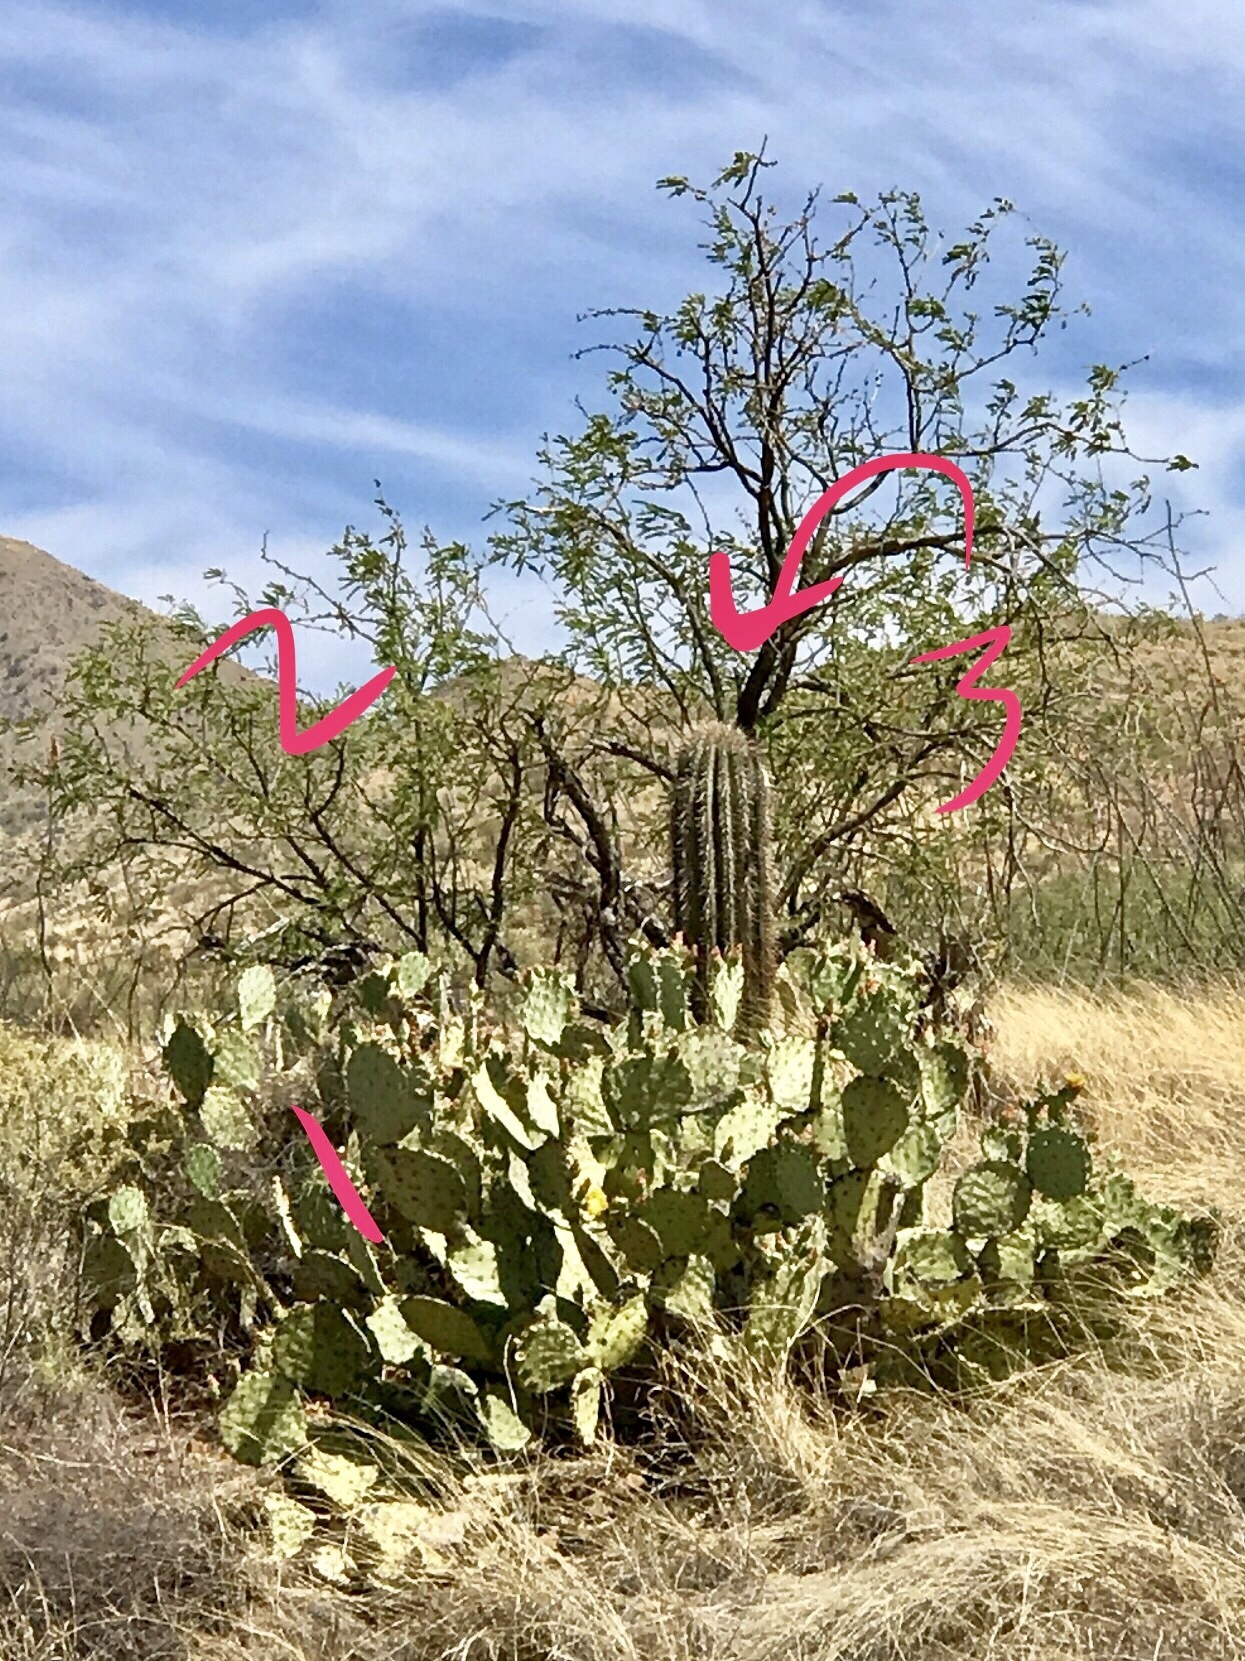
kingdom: Plantae
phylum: Tracheophyta
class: Magnoliopsida
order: Caryophyllales
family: Cactaceae
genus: Opuntia
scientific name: Opuntia engelmannii
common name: Cactus-apple
